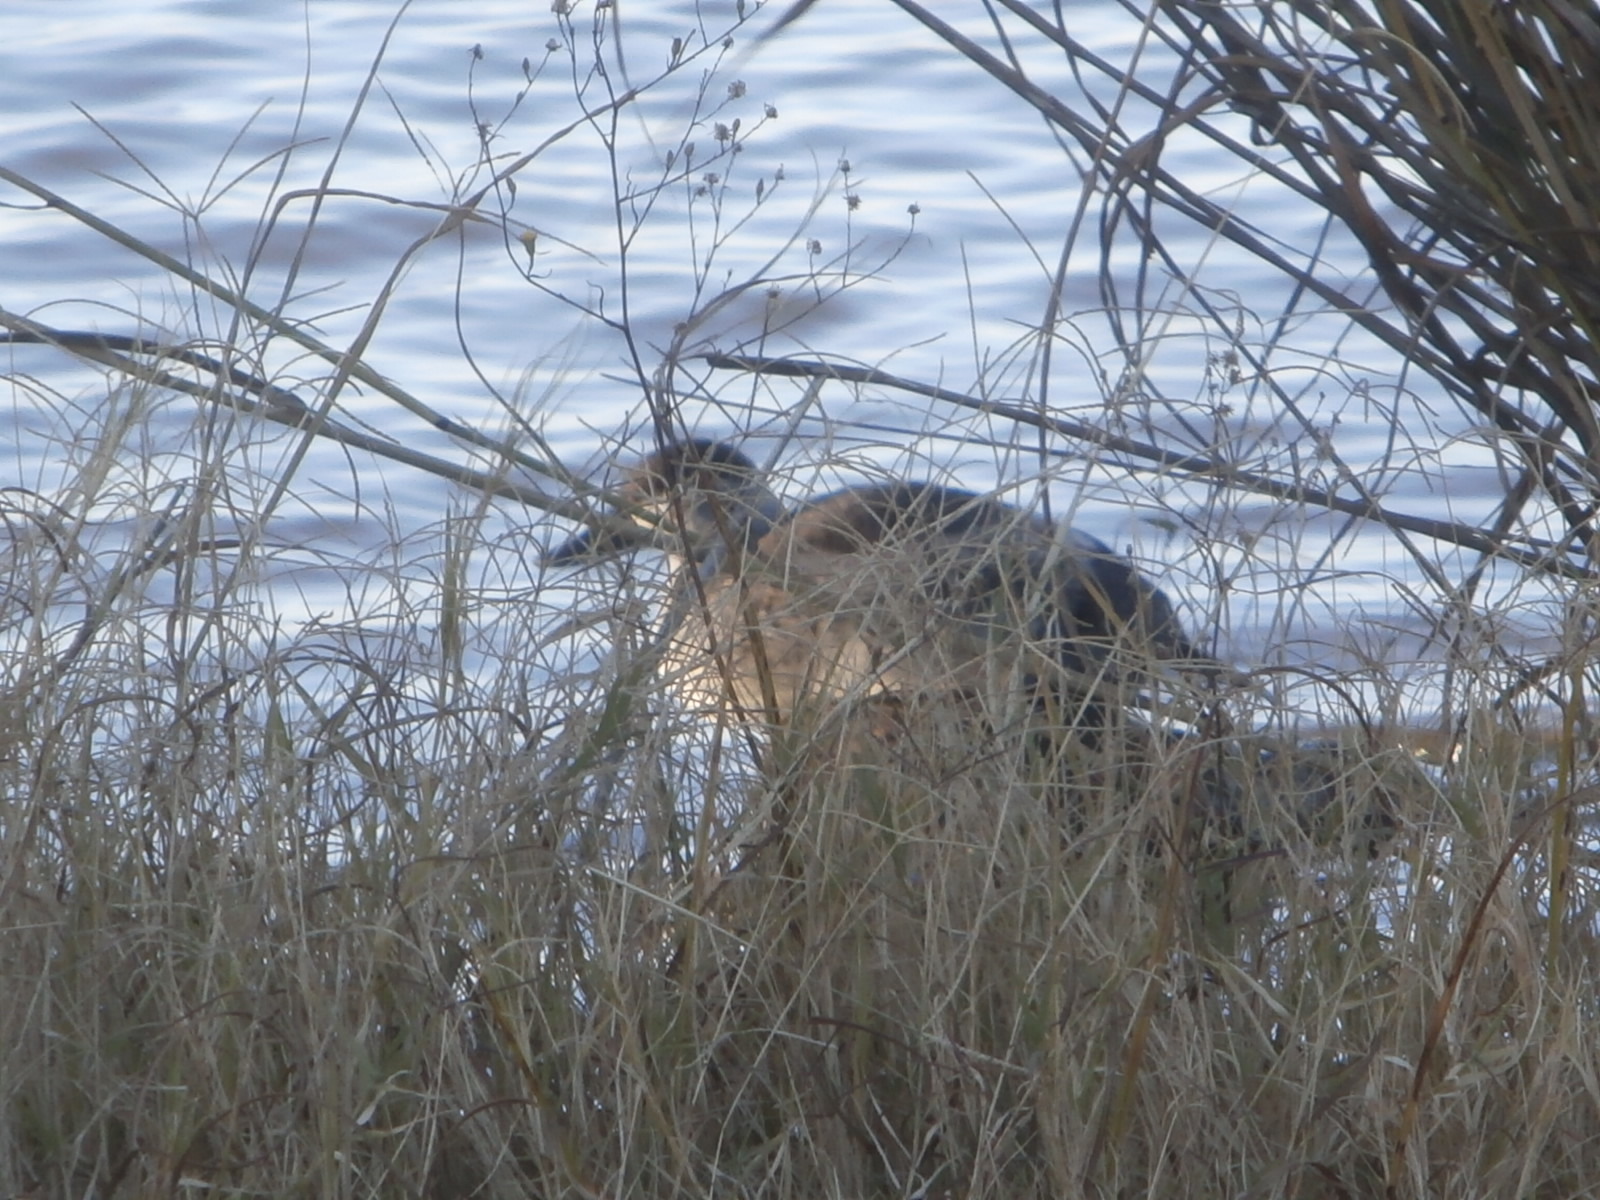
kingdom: Animalia
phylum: Chordata
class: Aves
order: Anseriformes
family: Anatidae
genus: Oxyura
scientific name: Oxyura jamaicensis
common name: Ruddy duck
